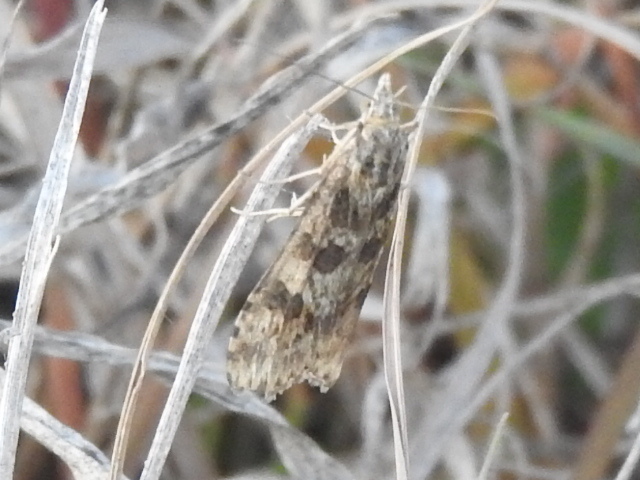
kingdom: Animalia
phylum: Arthropoda
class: Insecta
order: Lepidoptera
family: Crambidae
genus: Nomophila
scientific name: Nomophila nearctica
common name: American rush veneer
